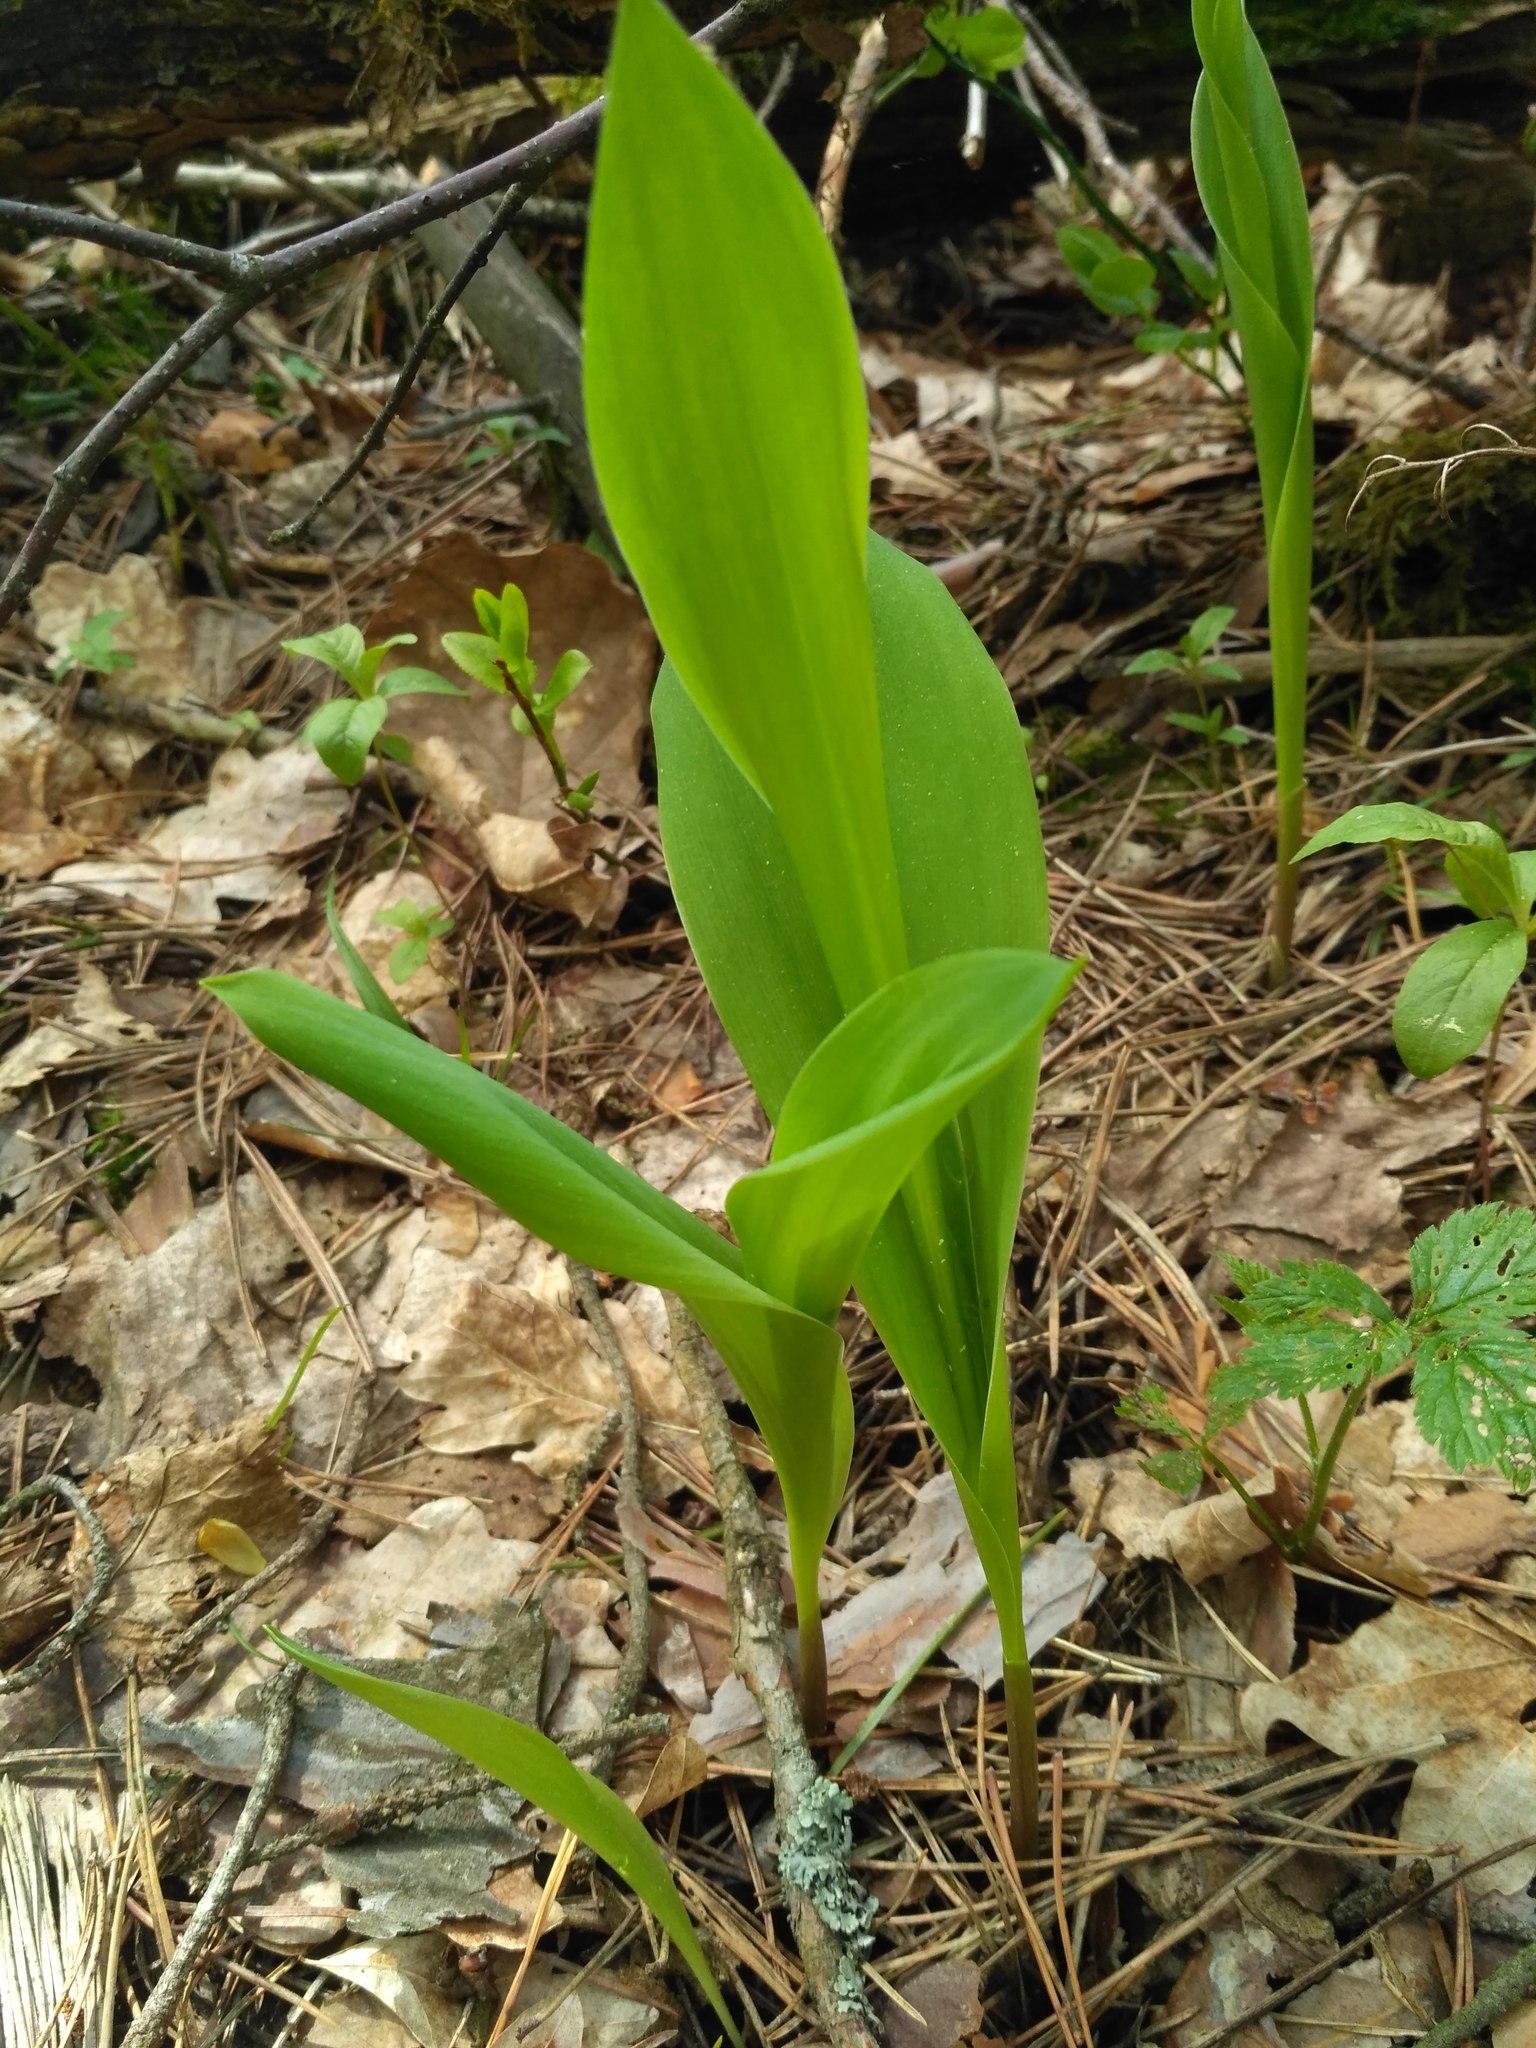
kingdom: Plantae
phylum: Tracheophyta
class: Liliopsida
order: Asparagales
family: Asparagaceae
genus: Convallaria
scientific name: Convallaria majalis
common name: Lily-of-the-valley
